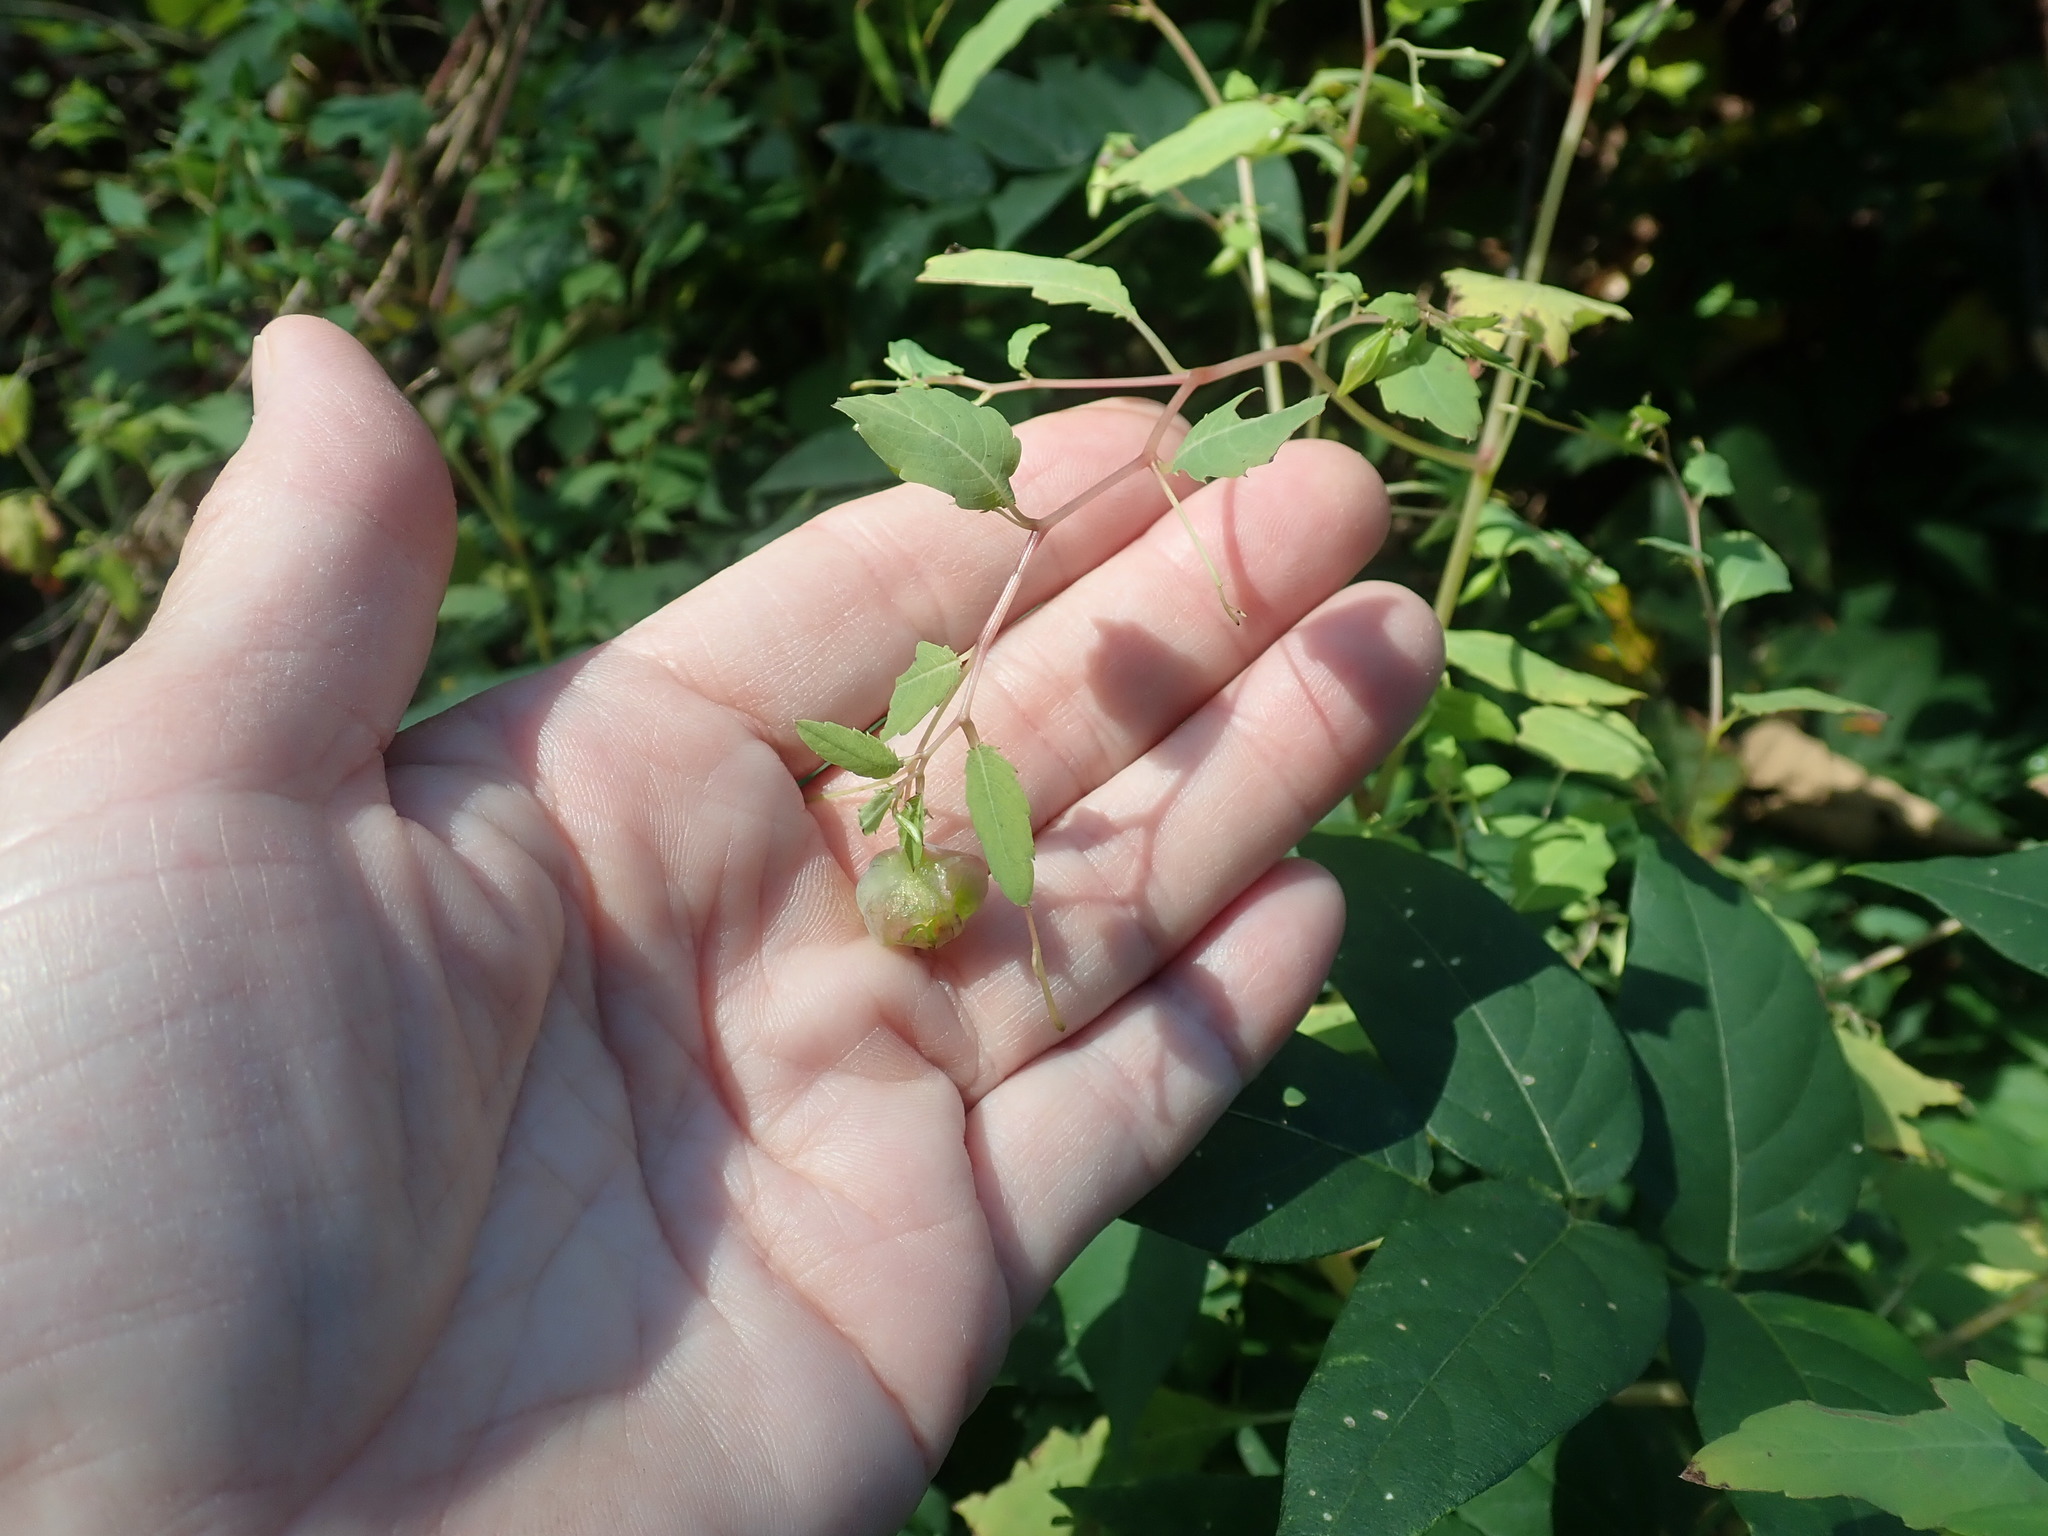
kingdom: Animalia
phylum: Arthropoda
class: Insecta
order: Diptera
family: Cecidomyiidae
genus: Schizomyia
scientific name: Schizomyia impatientis
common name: Jewelweed gall midge
